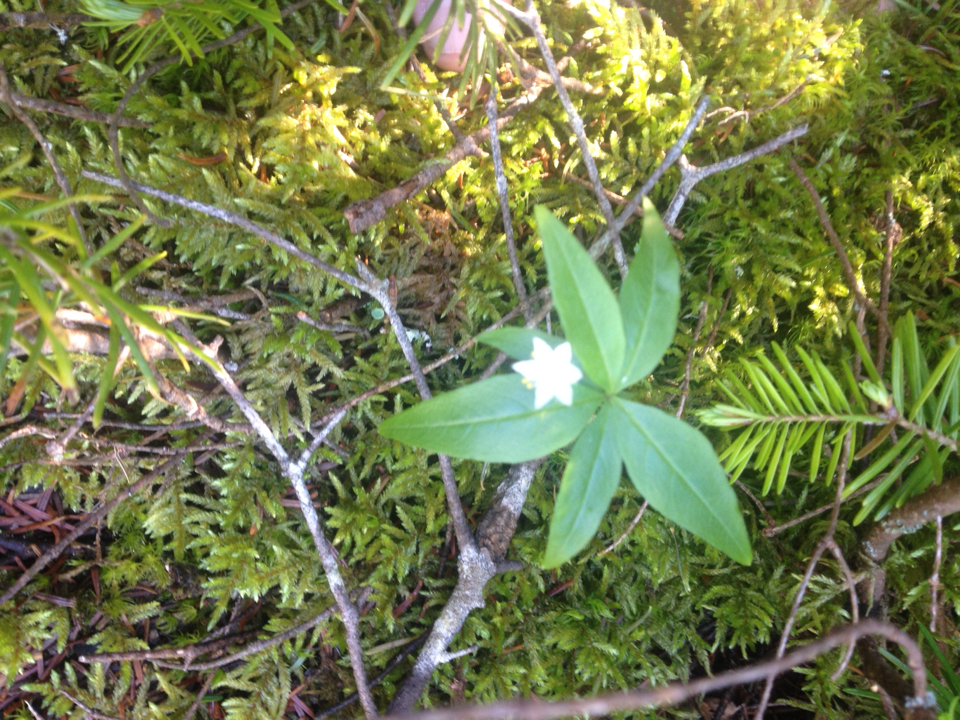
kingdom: Plantae
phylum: Tracheophyta
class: Magnoliopsida
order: Ericales
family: Primulaceae
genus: Lysimachia
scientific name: Lysimachia borealis
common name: American starflower
